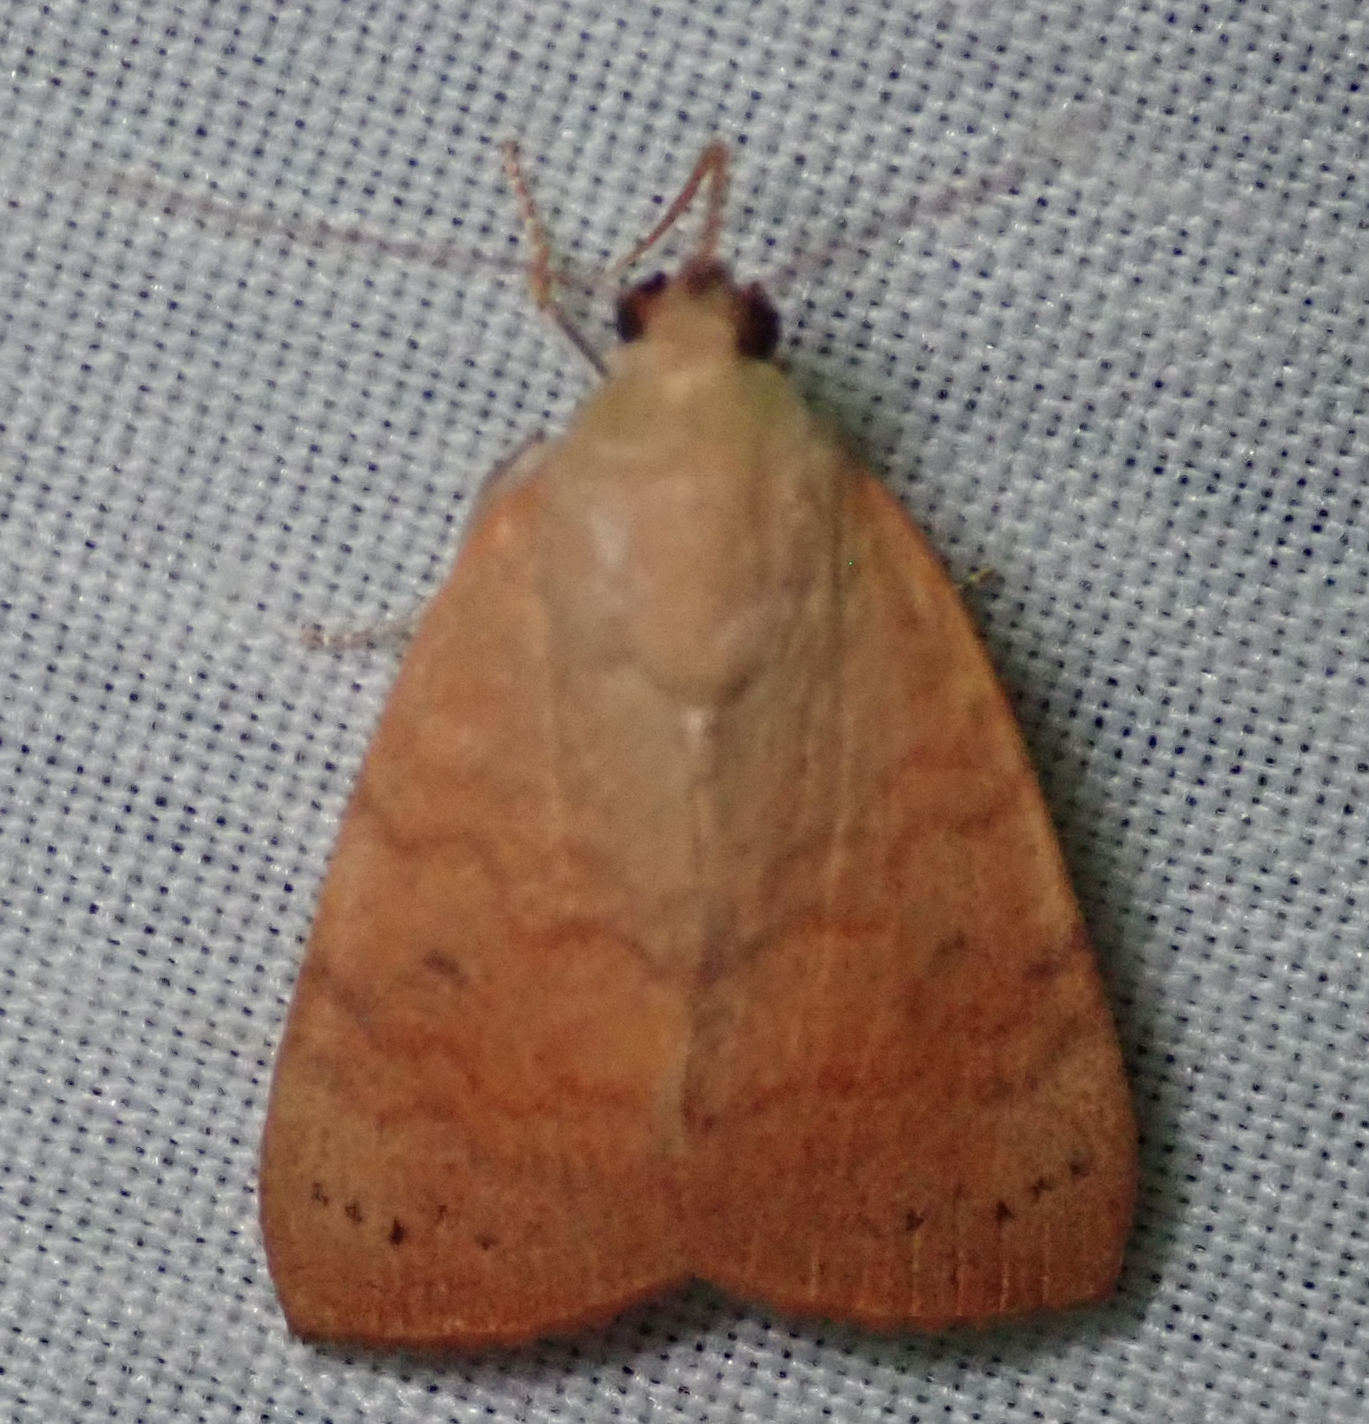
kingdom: Animalia
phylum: Arthropoda
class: Insecta
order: Lepidoptera
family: Nolidae
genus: Maurilia
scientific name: Maurilia arcuata
